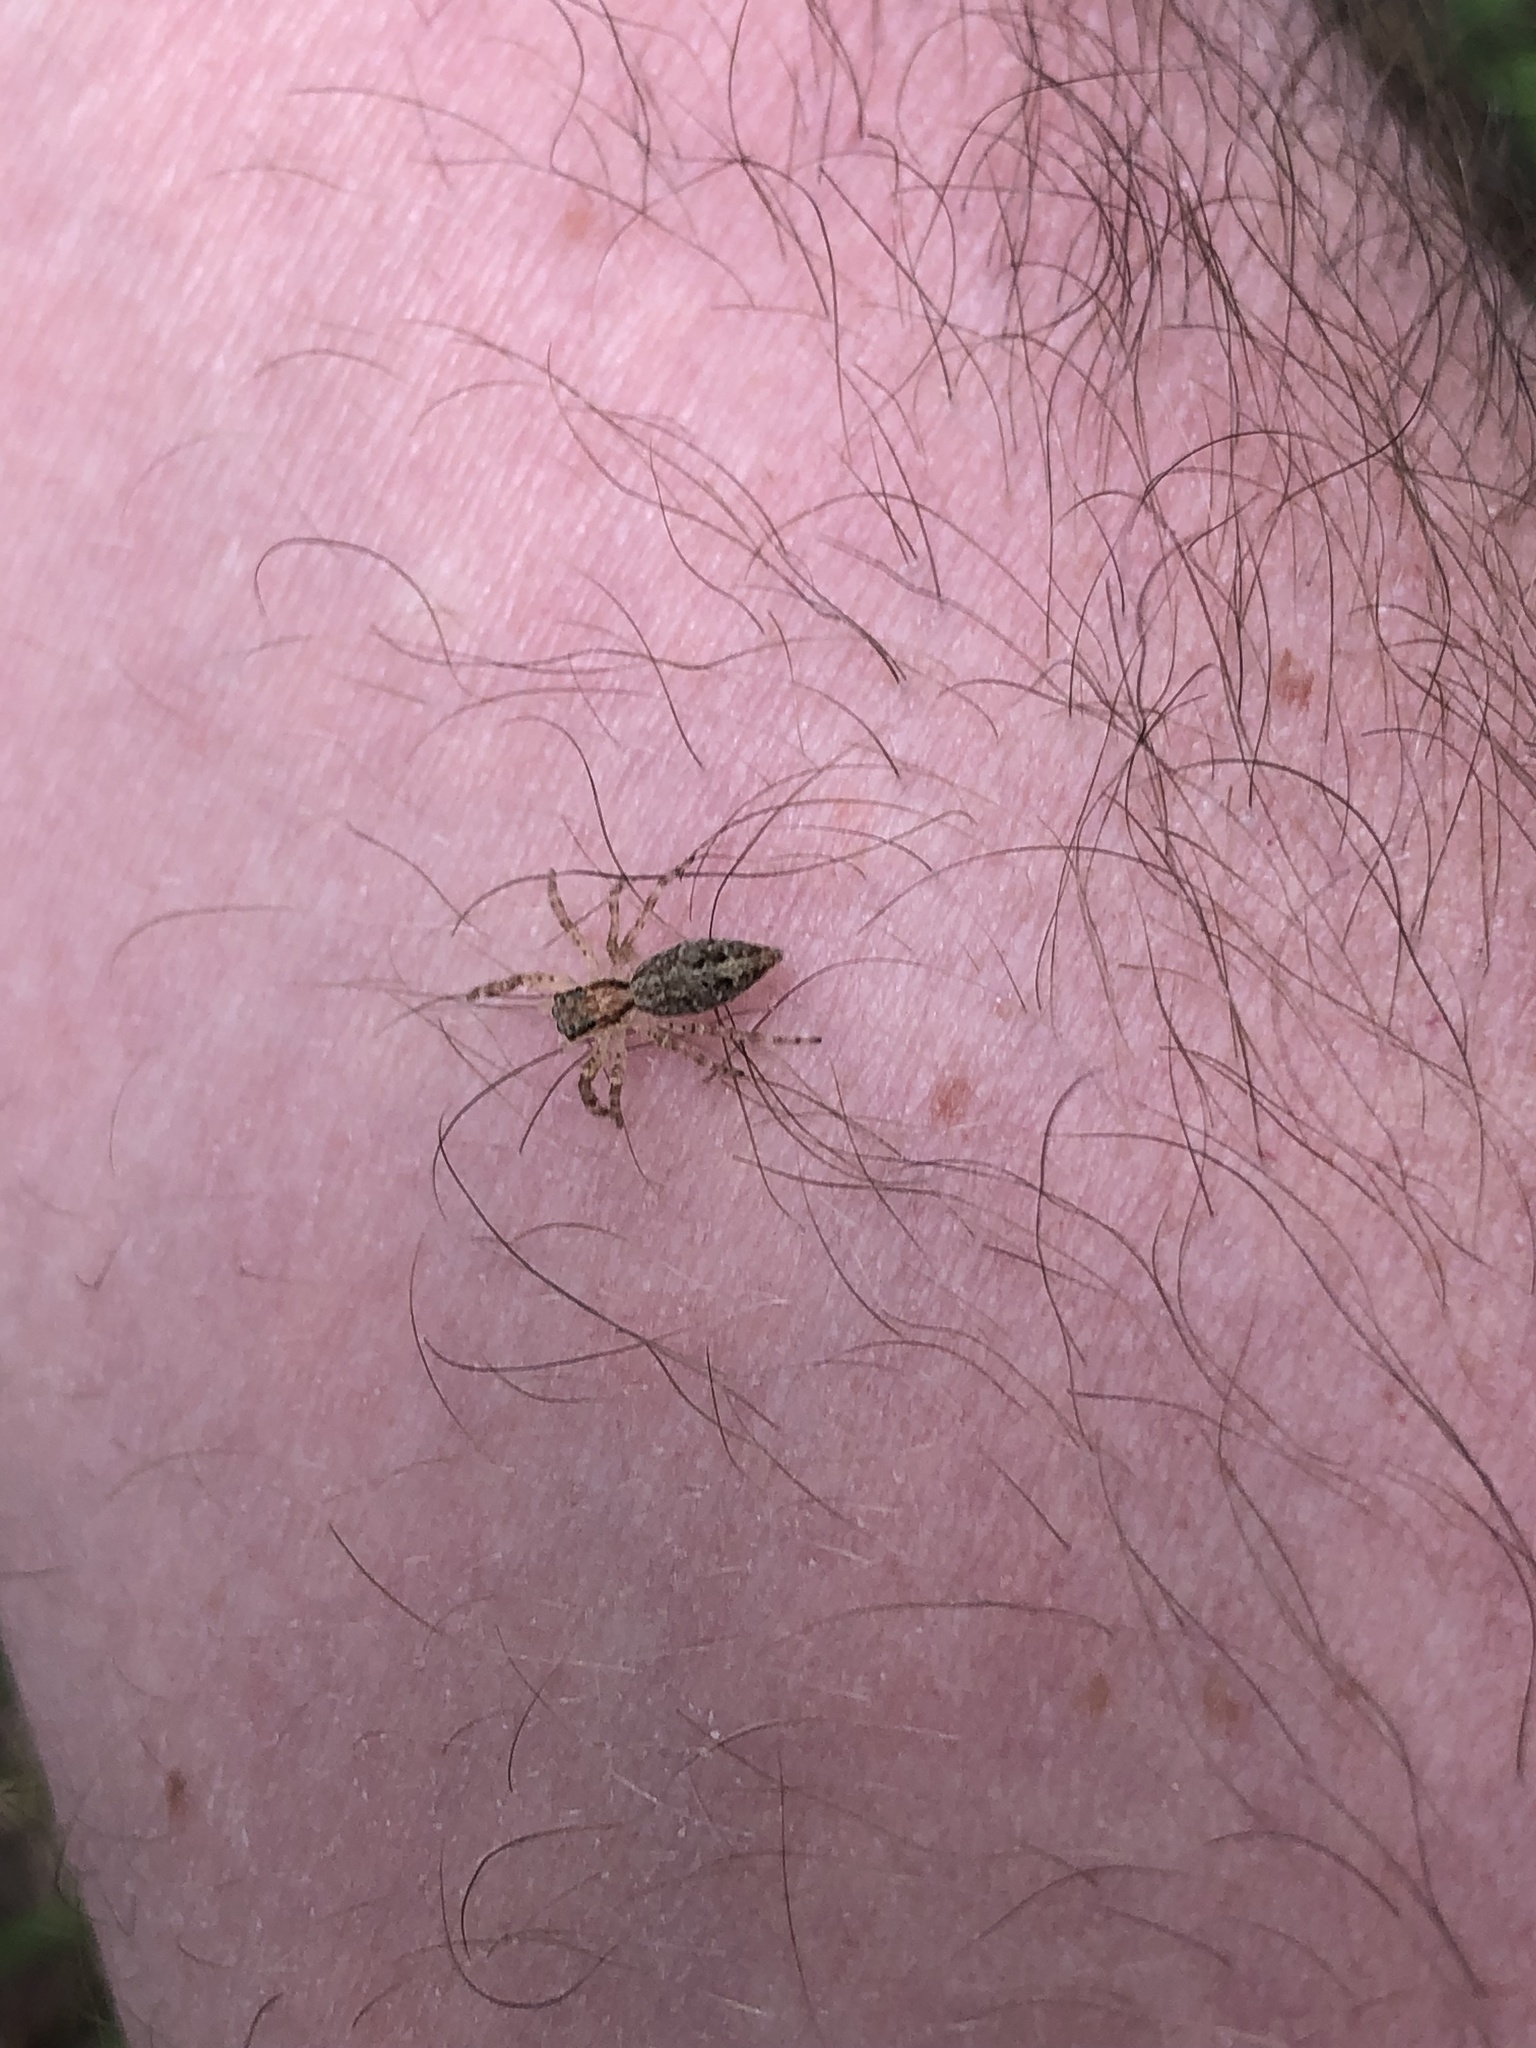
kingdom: Animalia
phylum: Arthropoda
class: Arachnida
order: Araneae
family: Salticidae
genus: Helpis
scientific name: Helpis minitabunda
